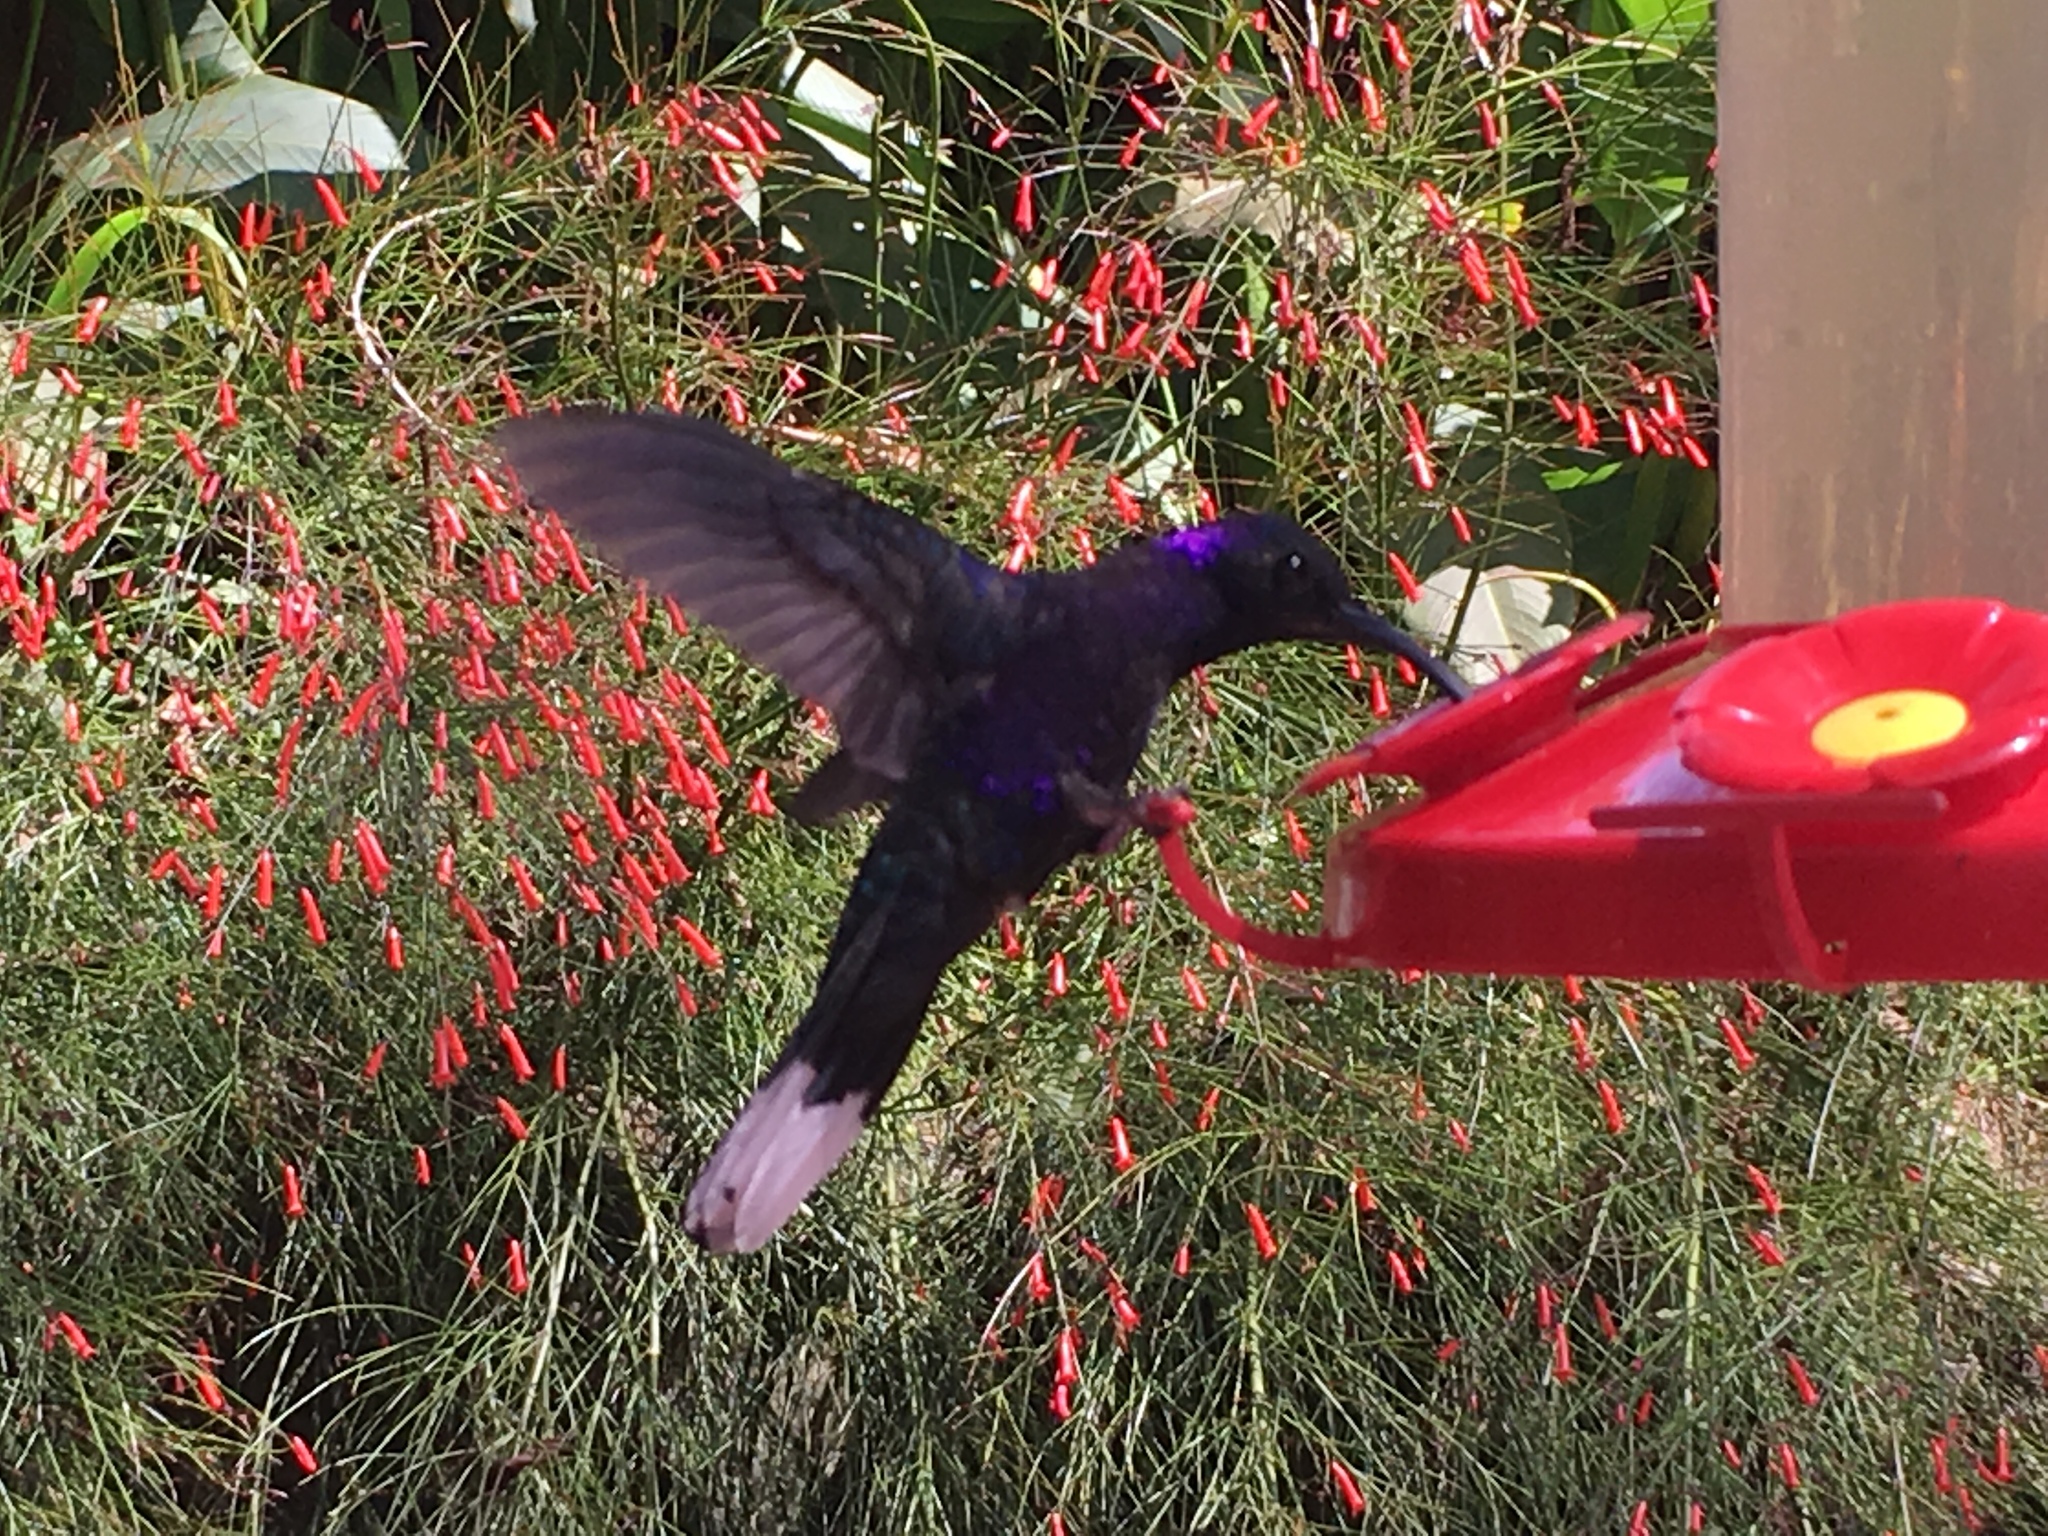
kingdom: Animalia
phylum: Chordata
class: Aves
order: Apodiformes
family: Trochilidae
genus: Campylopterus
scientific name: Campylopterus hemileucurus
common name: Violet sabrewing
